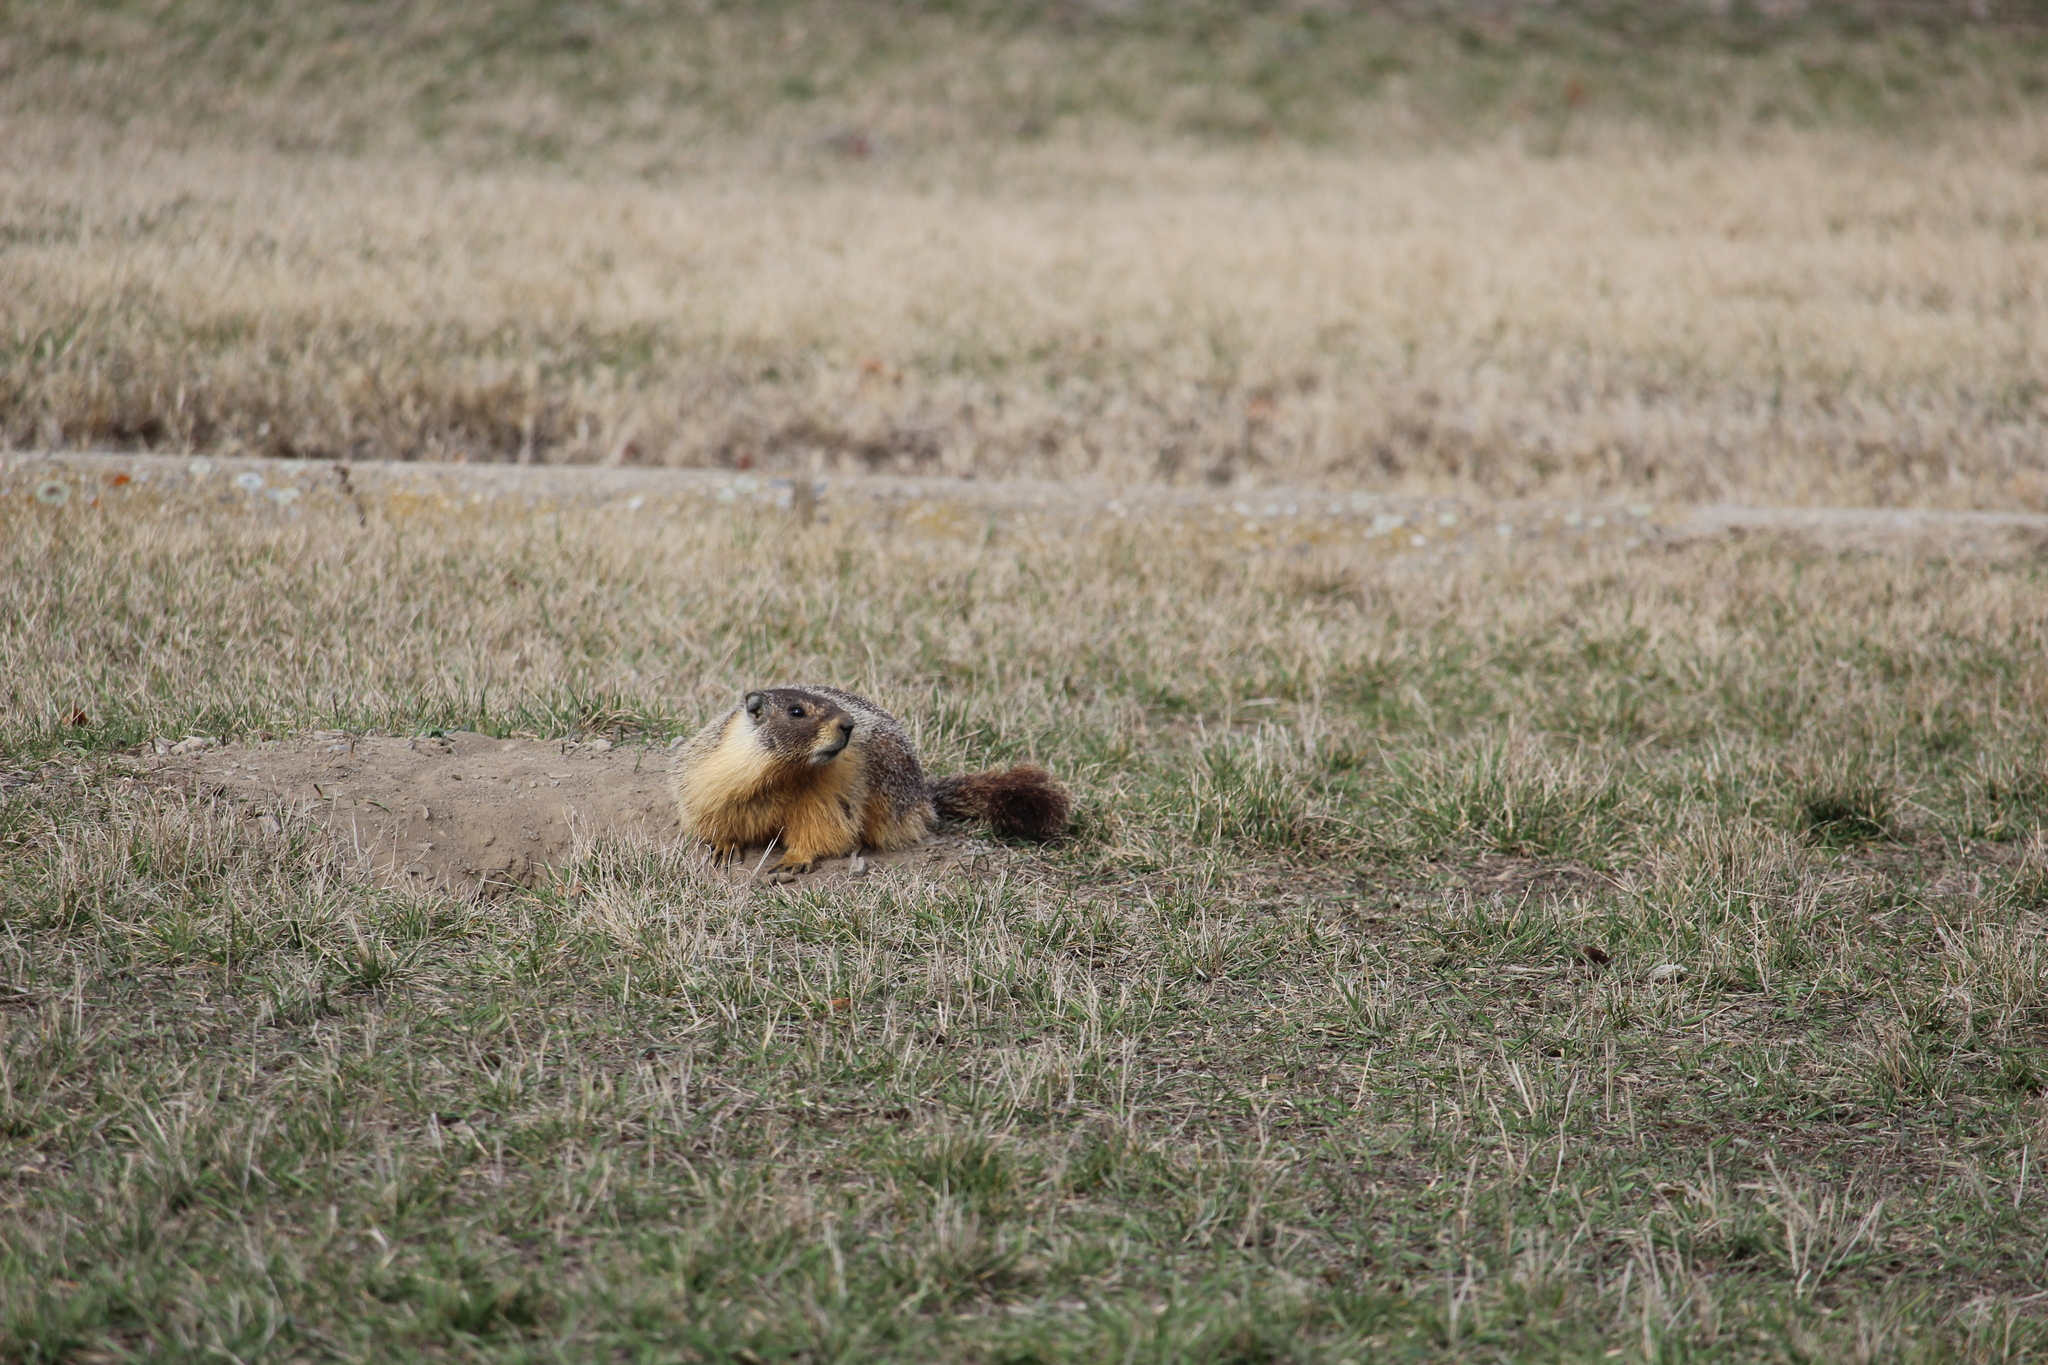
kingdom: Animalia
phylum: Chordata
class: Mammalia
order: Rodentia
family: Sciuridae
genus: Marmota
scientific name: Marmota flaviventris
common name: Yellow-bellied marmot
